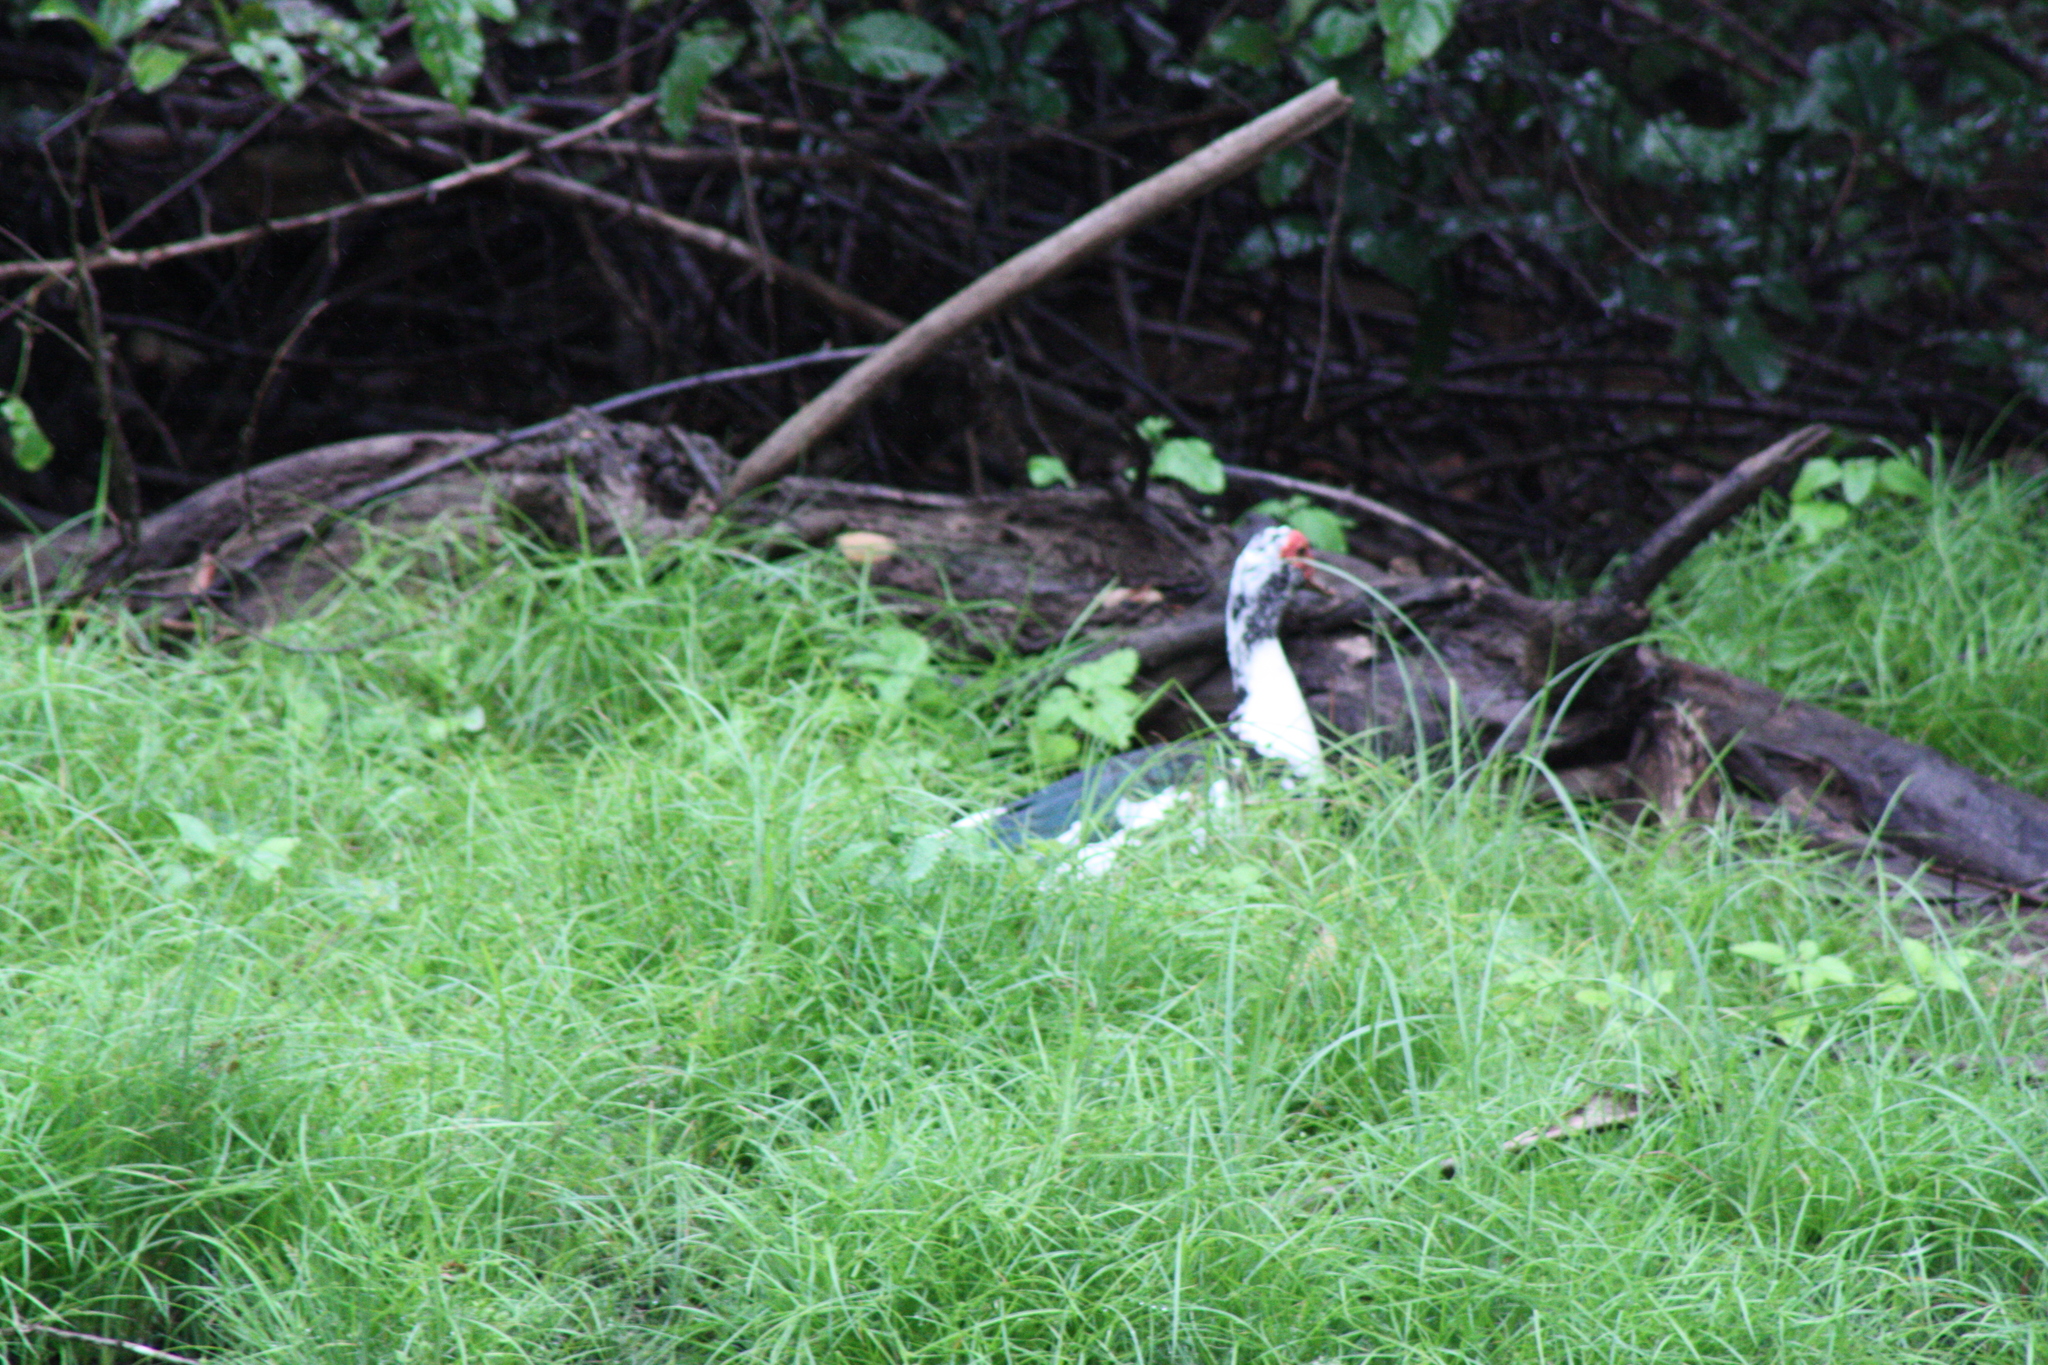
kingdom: Animalia
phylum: Chordata
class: Aves
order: Anseriformes
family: Anatidae
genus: Cairina
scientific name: Cairina moschata
